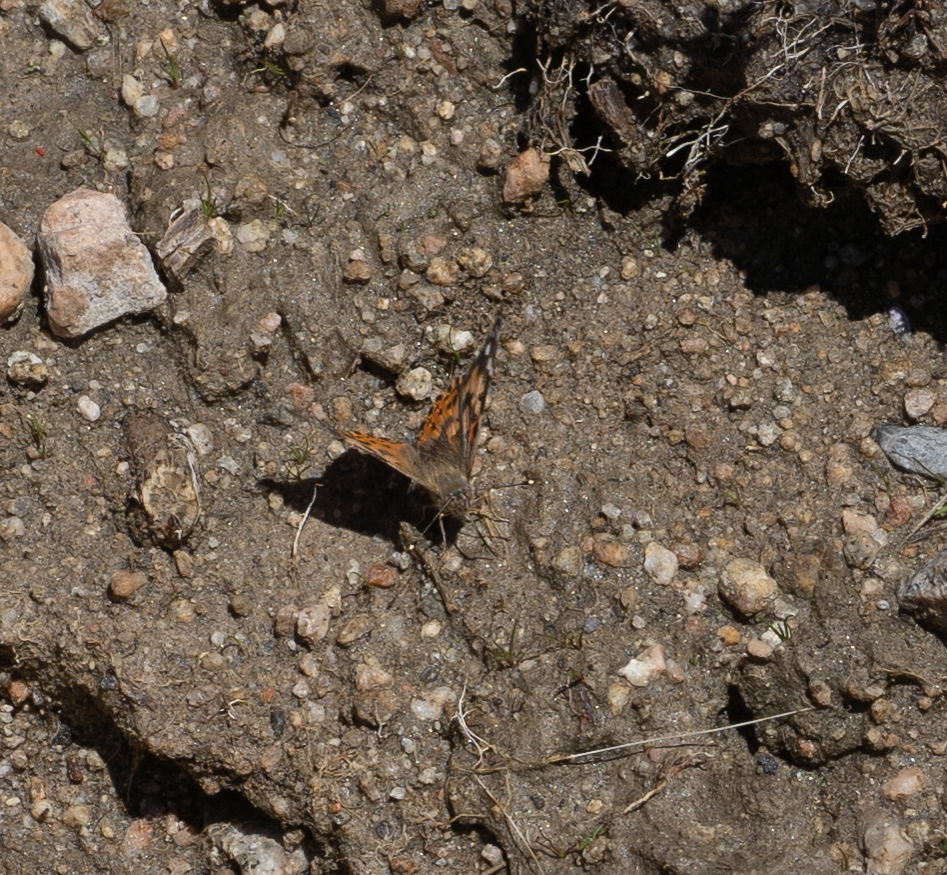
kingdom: Animalia
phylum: Arthropoda
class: Insecta
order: Lepidoptera
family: Nymphalidae
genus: Vanessa
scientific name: Vanessa cardui
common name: Painted lady
